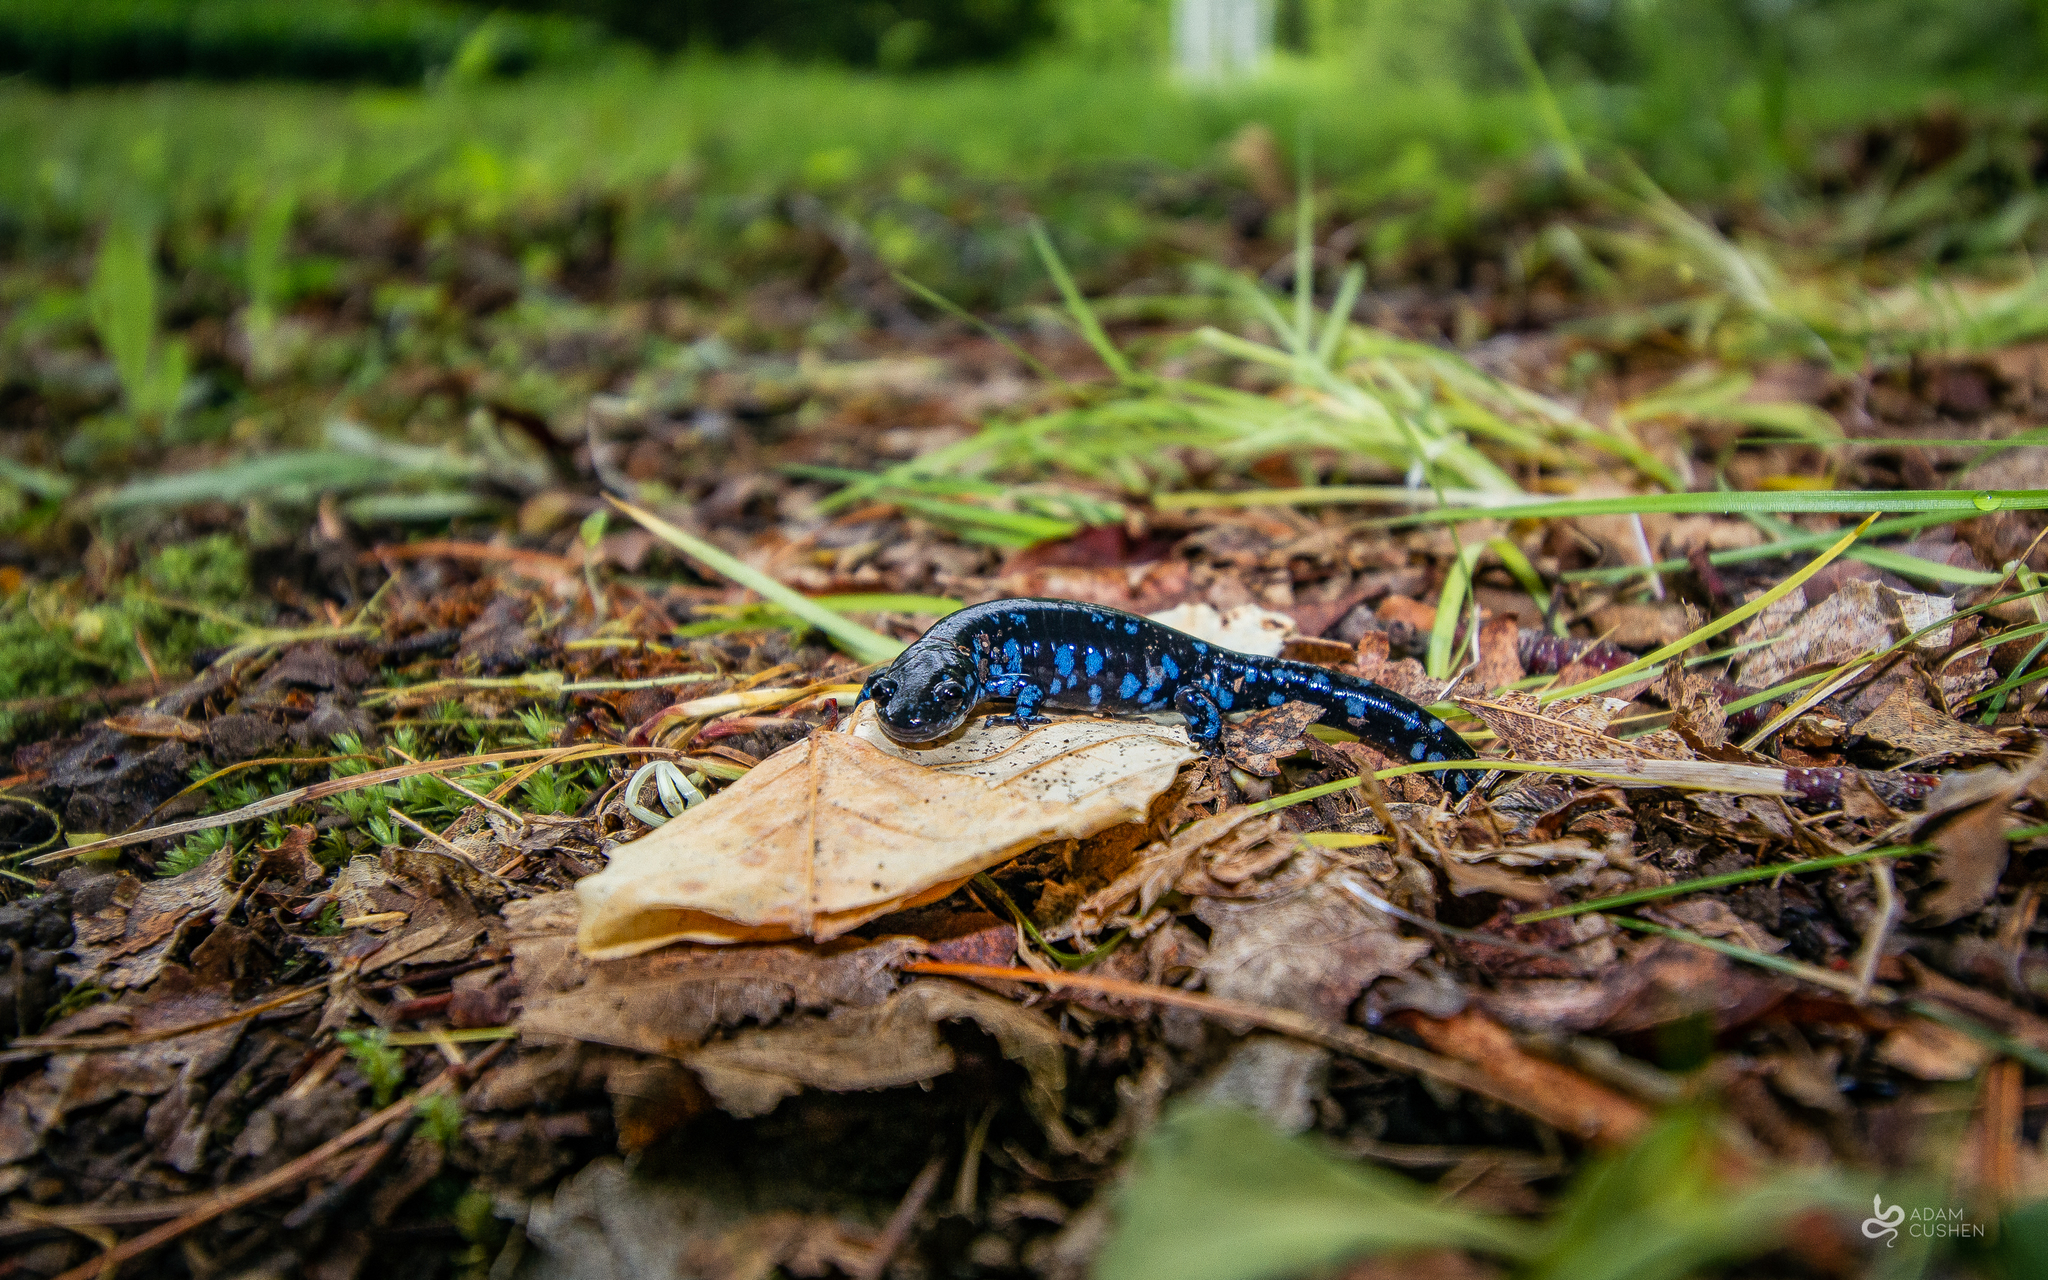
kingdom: Animalia
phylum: Chordata
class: Amphibia
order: Caudata
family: Ambystomatidae
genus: Ambystoma
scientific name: Ambystoma laterale
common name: Blue-spotted salamander
